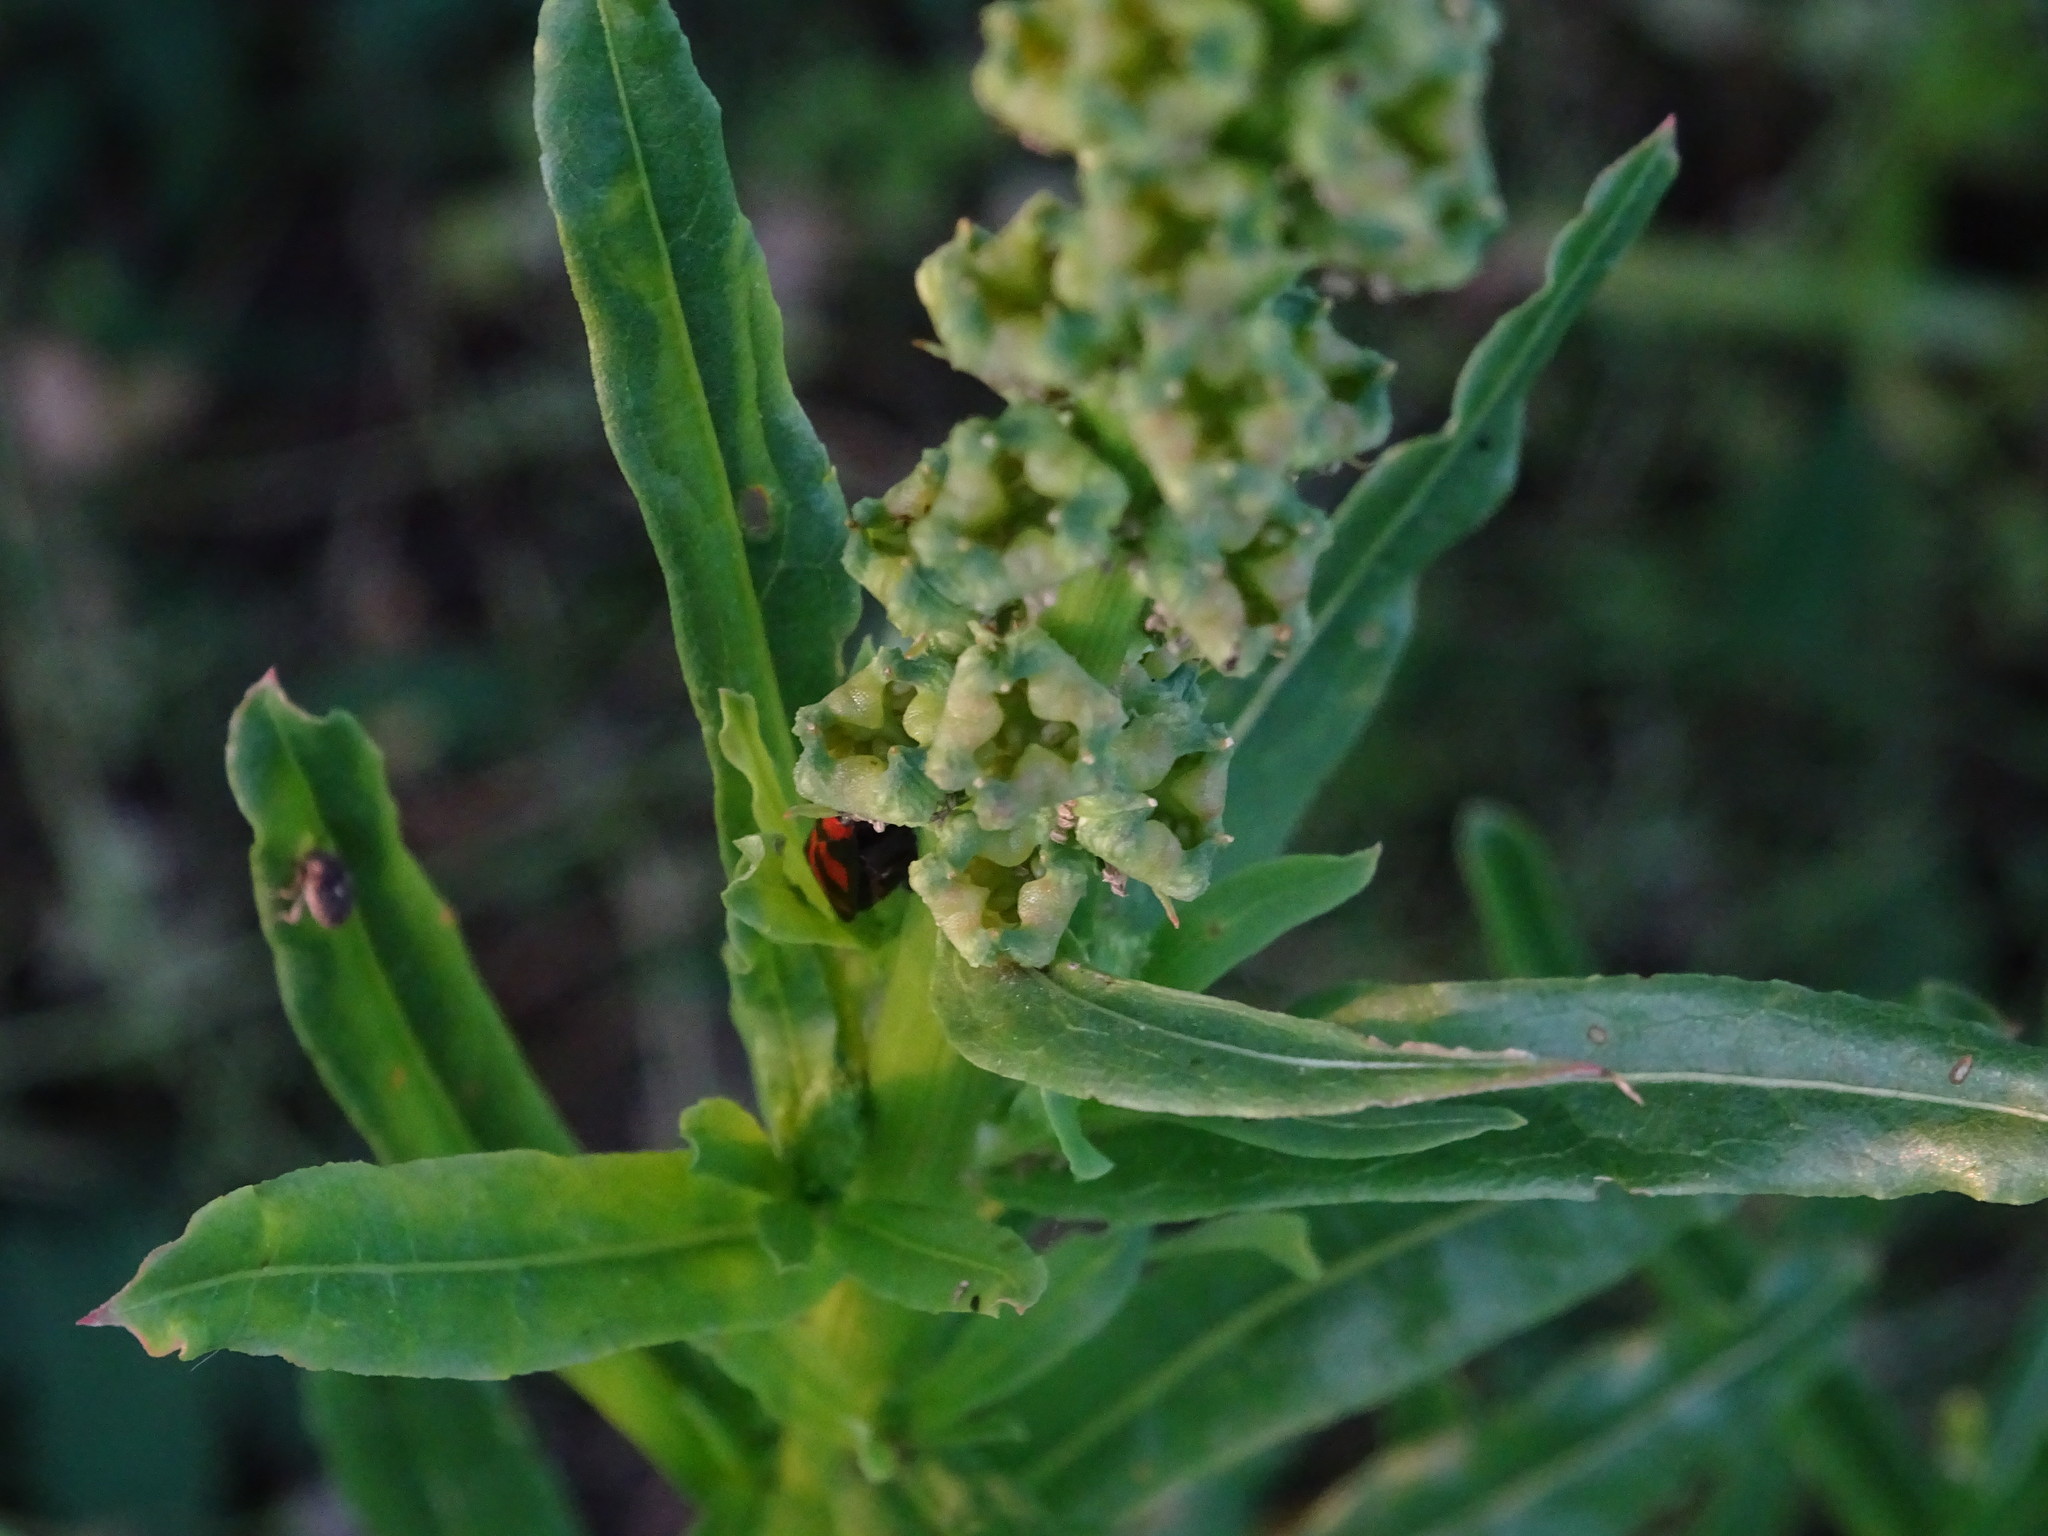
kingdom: Plantae
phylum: Tracheophyta
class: Magnoliopsida
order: Brassicales
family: Resedaceae
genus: Reseda
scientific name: Reseda luteola
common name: Weld
